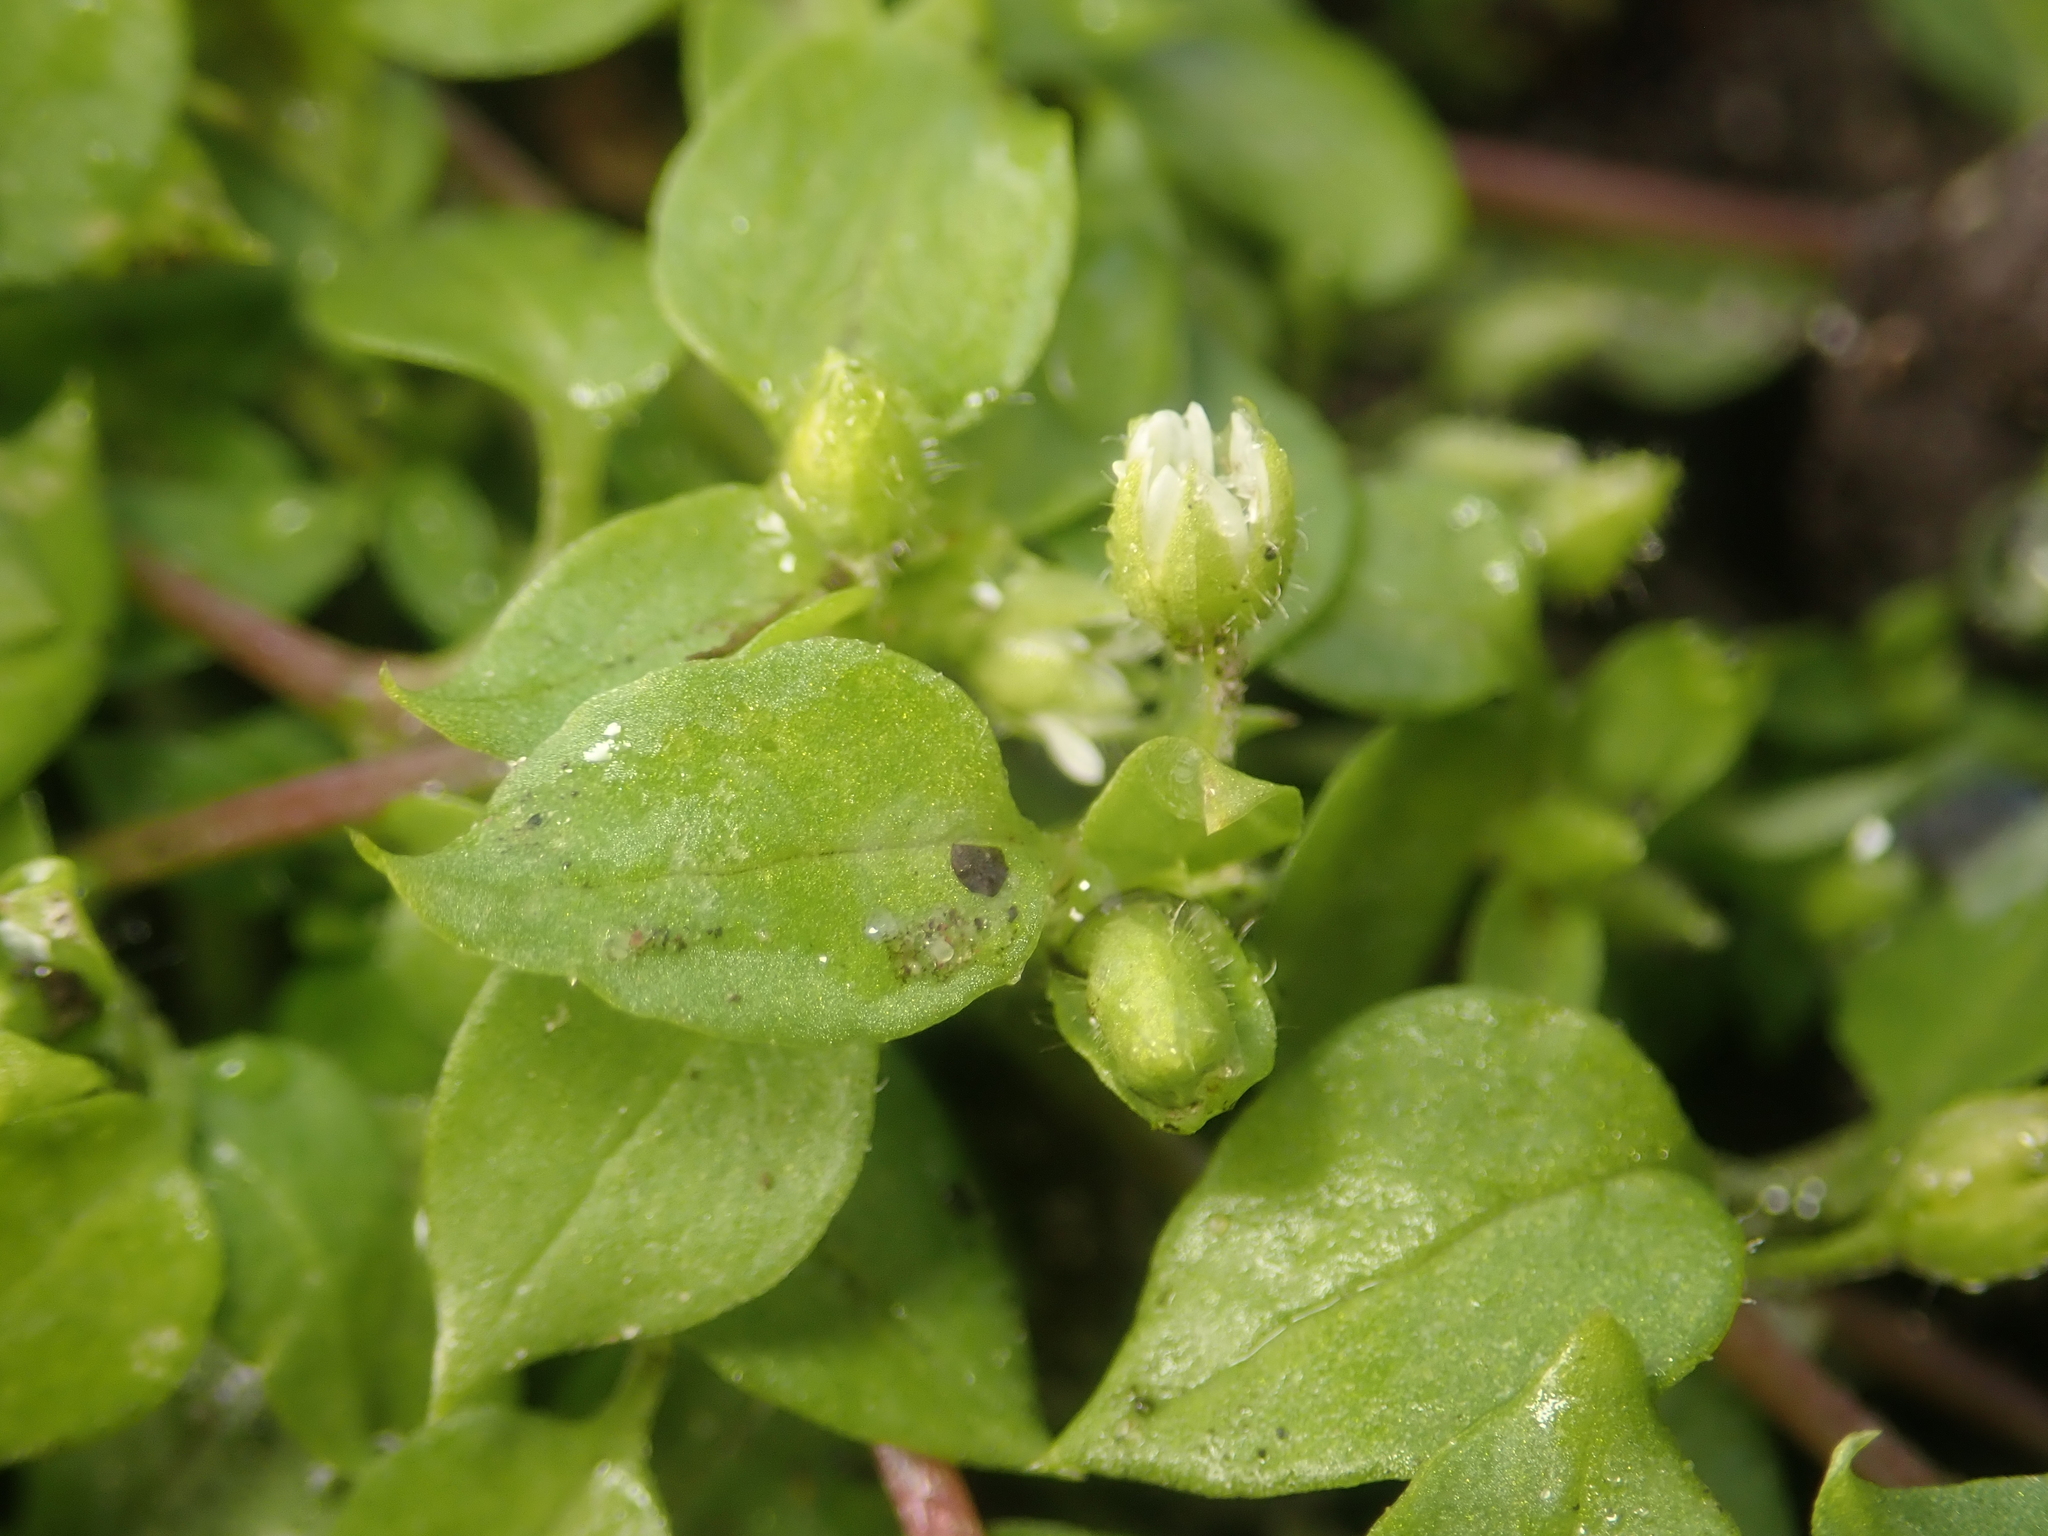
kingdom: Plantae
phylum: Tracheophyta
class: Magnoliopsida
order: Caryophyllales
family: Caryophyllaceae
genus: Stellaria
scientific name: Stellaria media
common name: Common chickweed
